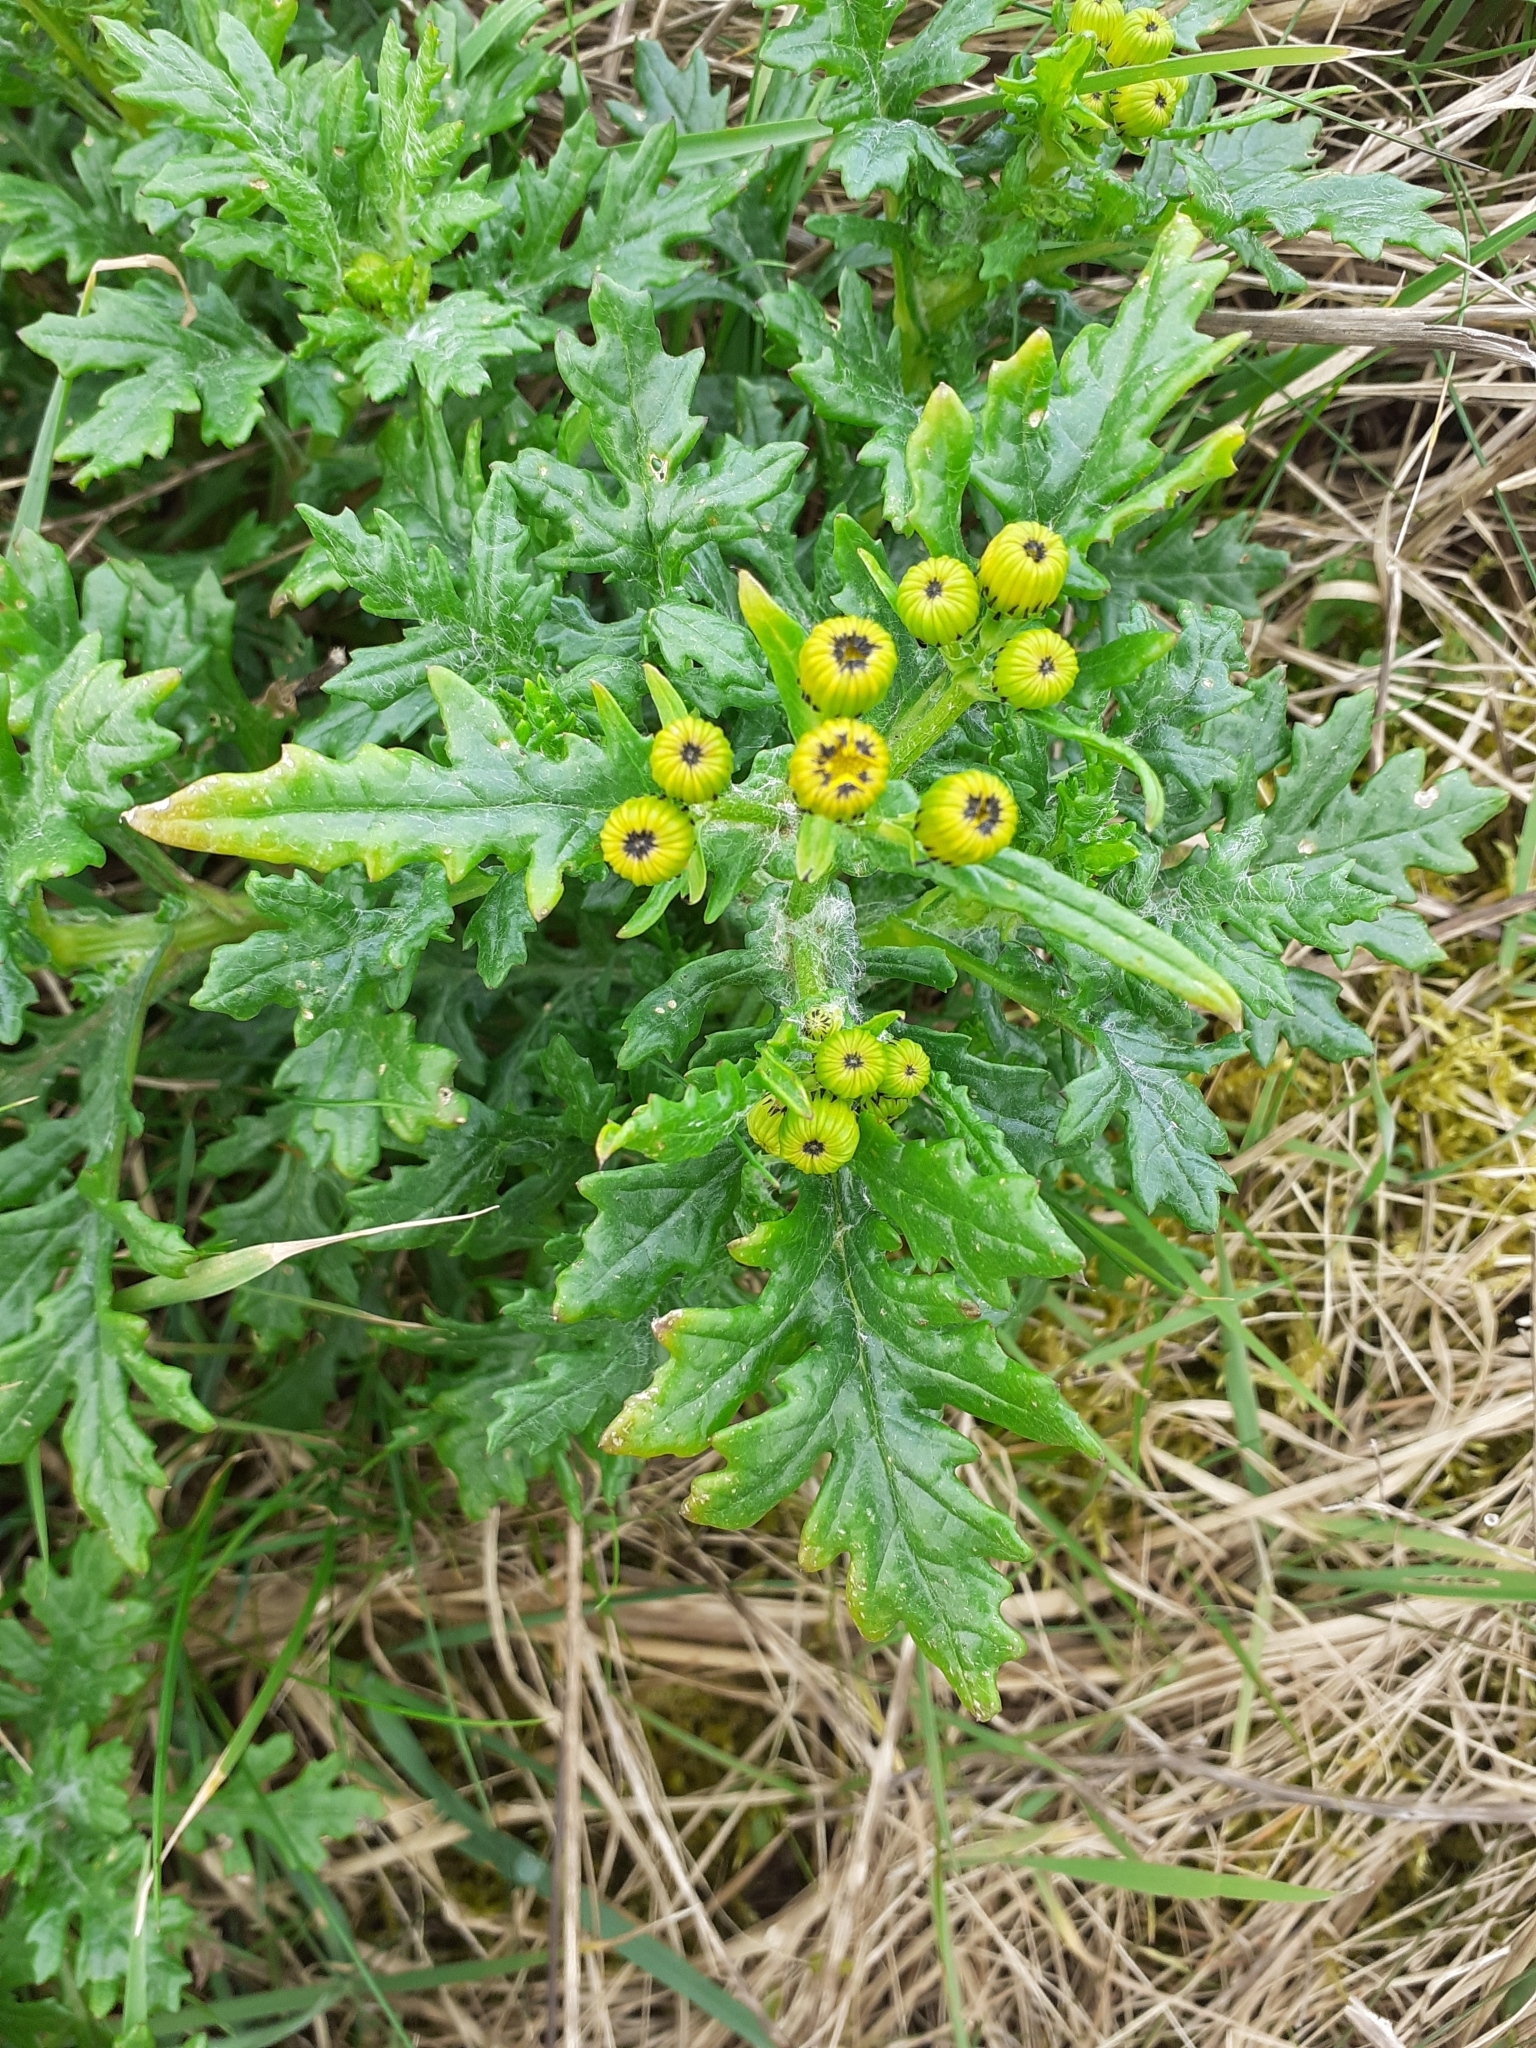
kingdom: Plantae
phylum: Tracheophyta
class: Magnoliopsida
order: Asterales
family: Asteraceae
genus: Senecio
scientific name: Senecio squalidus
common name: Oxford ragwort
